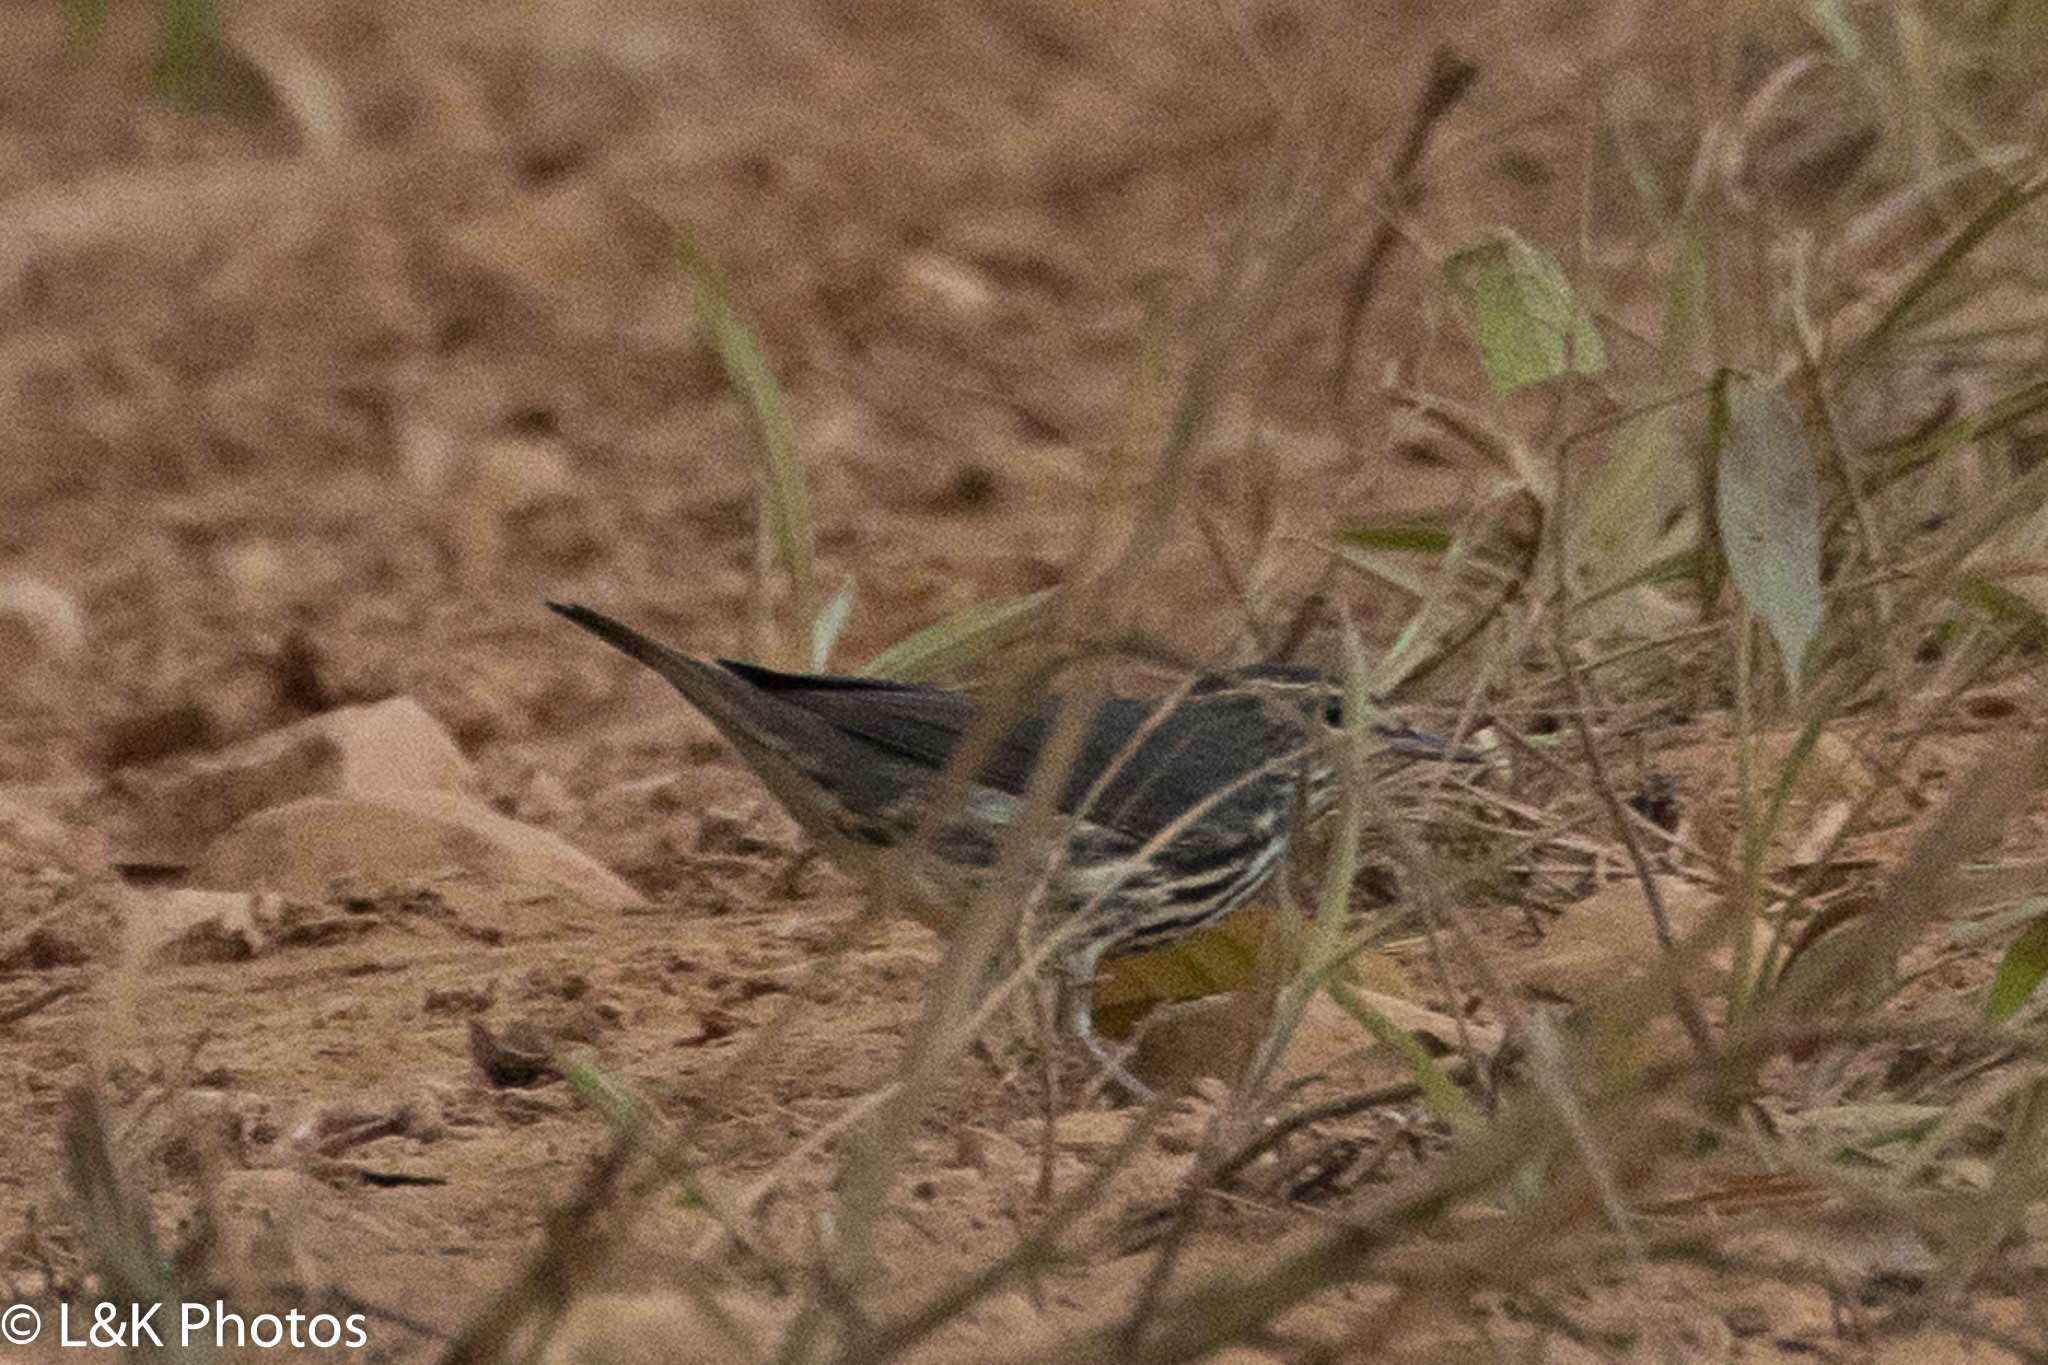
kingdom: Animalia
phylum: Chordata
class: Aves
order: Passeriformes
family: Parulidae
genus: Parkesia
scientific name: Parkesia noveboracensis
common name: Northern waterthrush
